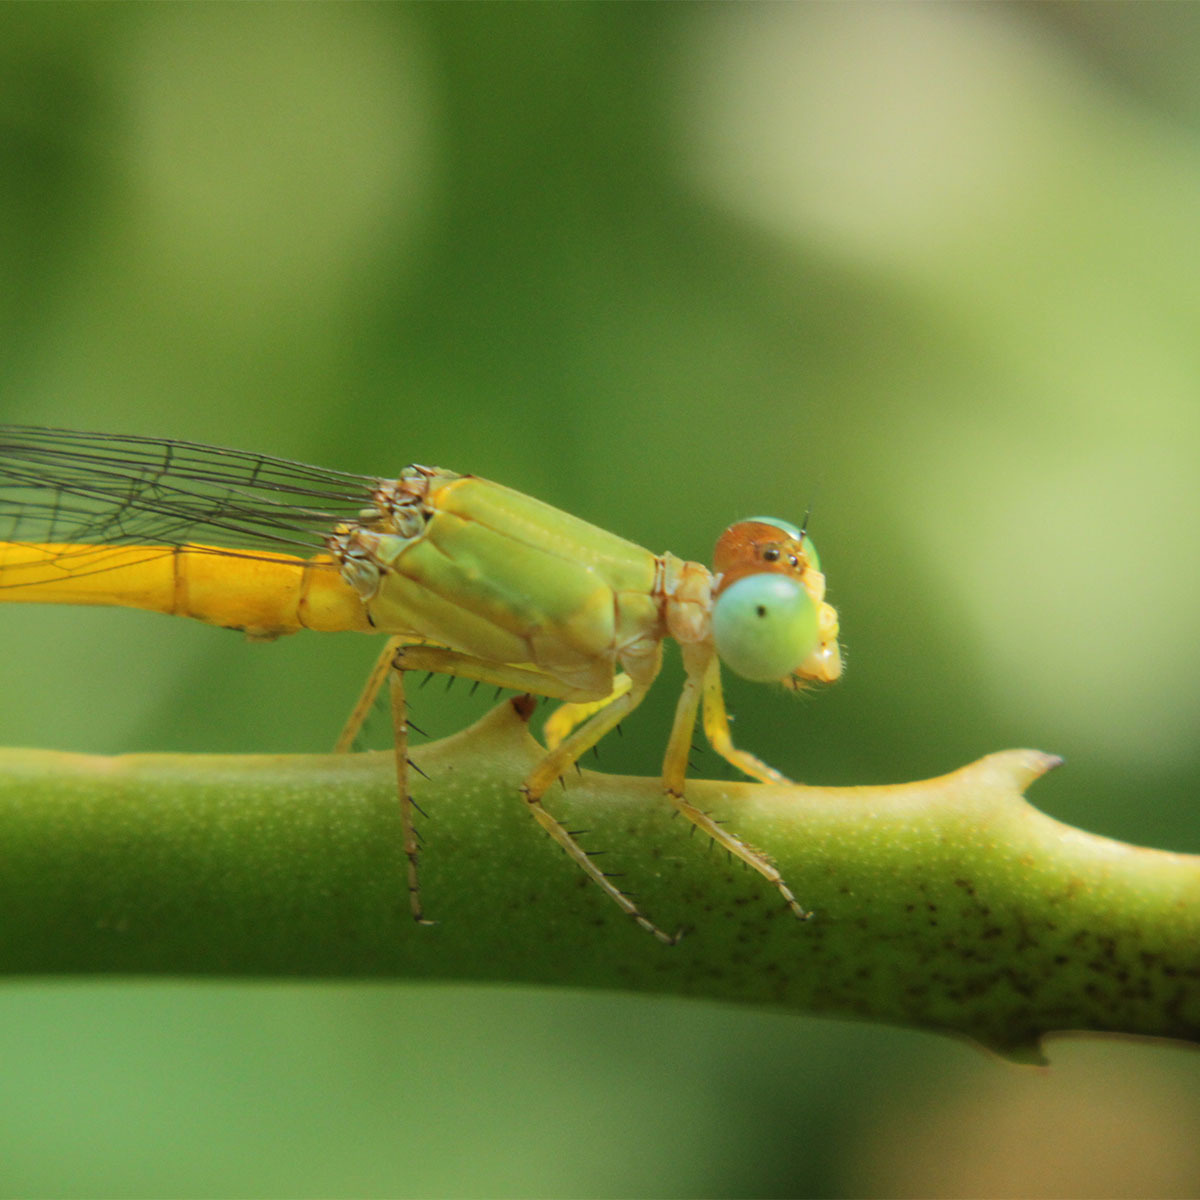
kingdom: Animalia
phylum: Arthropoda
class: Insecta
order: Odonata
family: Coenagrionidae
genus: Ceriagrion
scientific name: Ceriagrion coromandelianum
